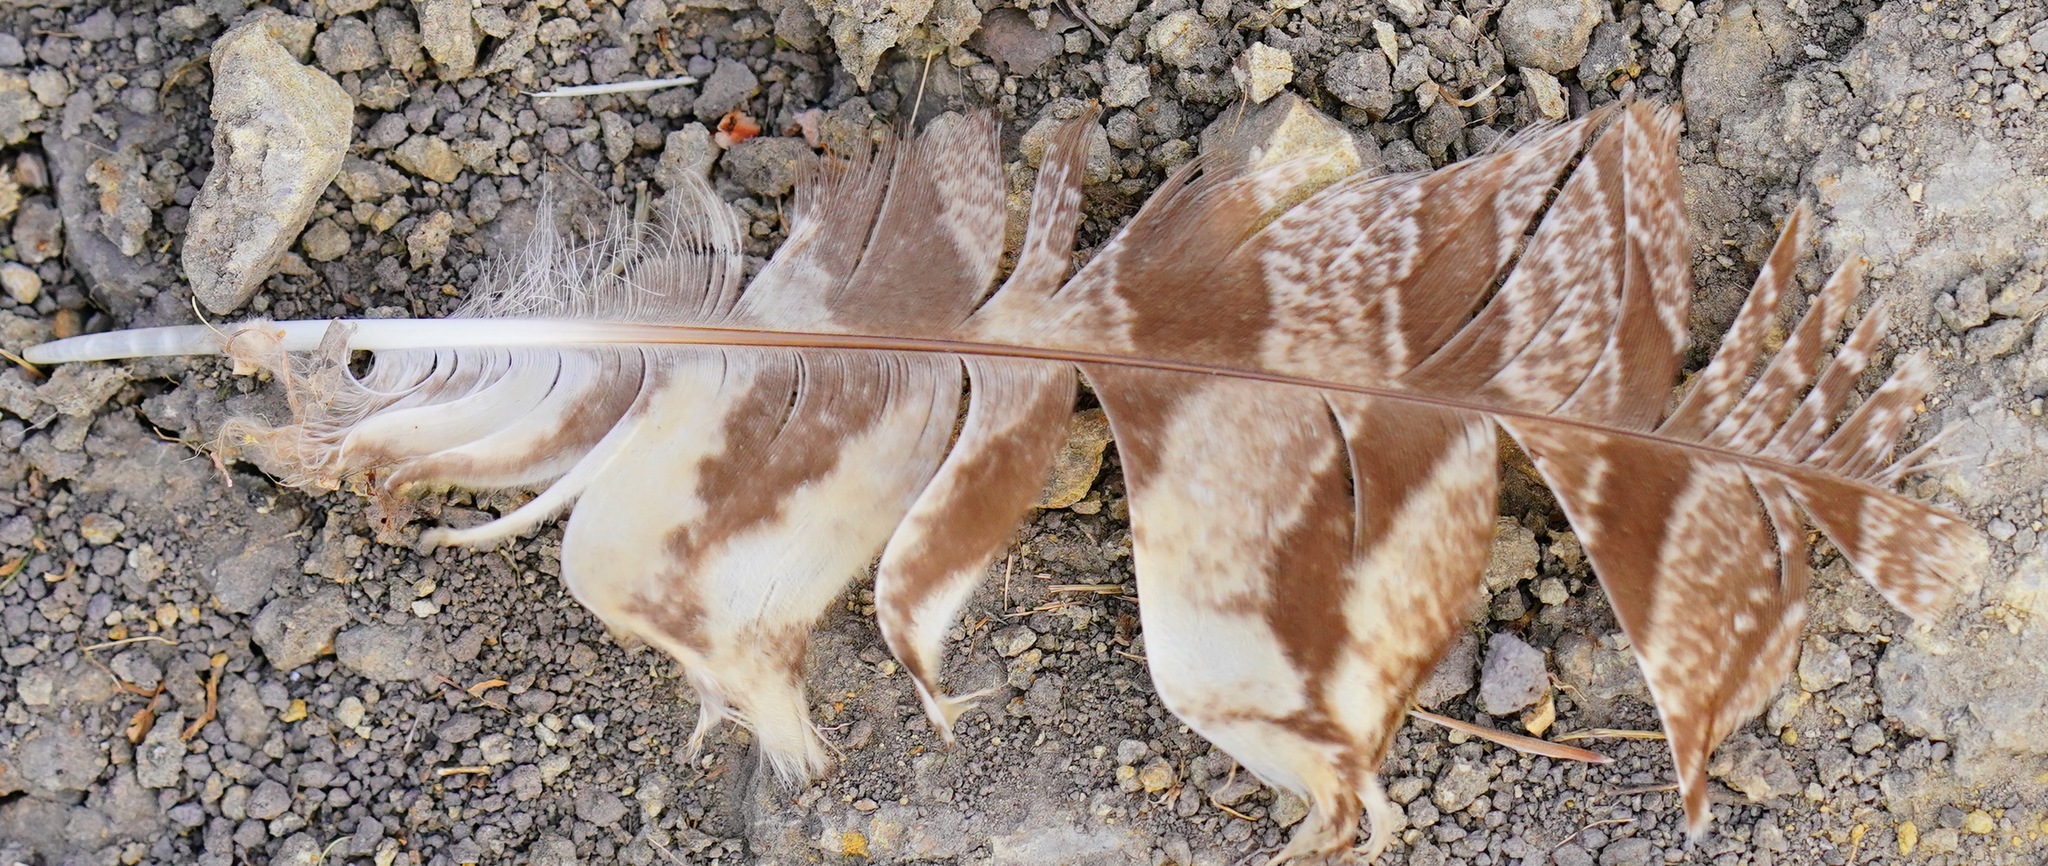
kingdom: Animalia
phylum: Chordata
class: Aves
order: Strigiformes
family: Strigidae
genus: Bubo
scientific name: Bubo virginianus
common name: Great horned owl
